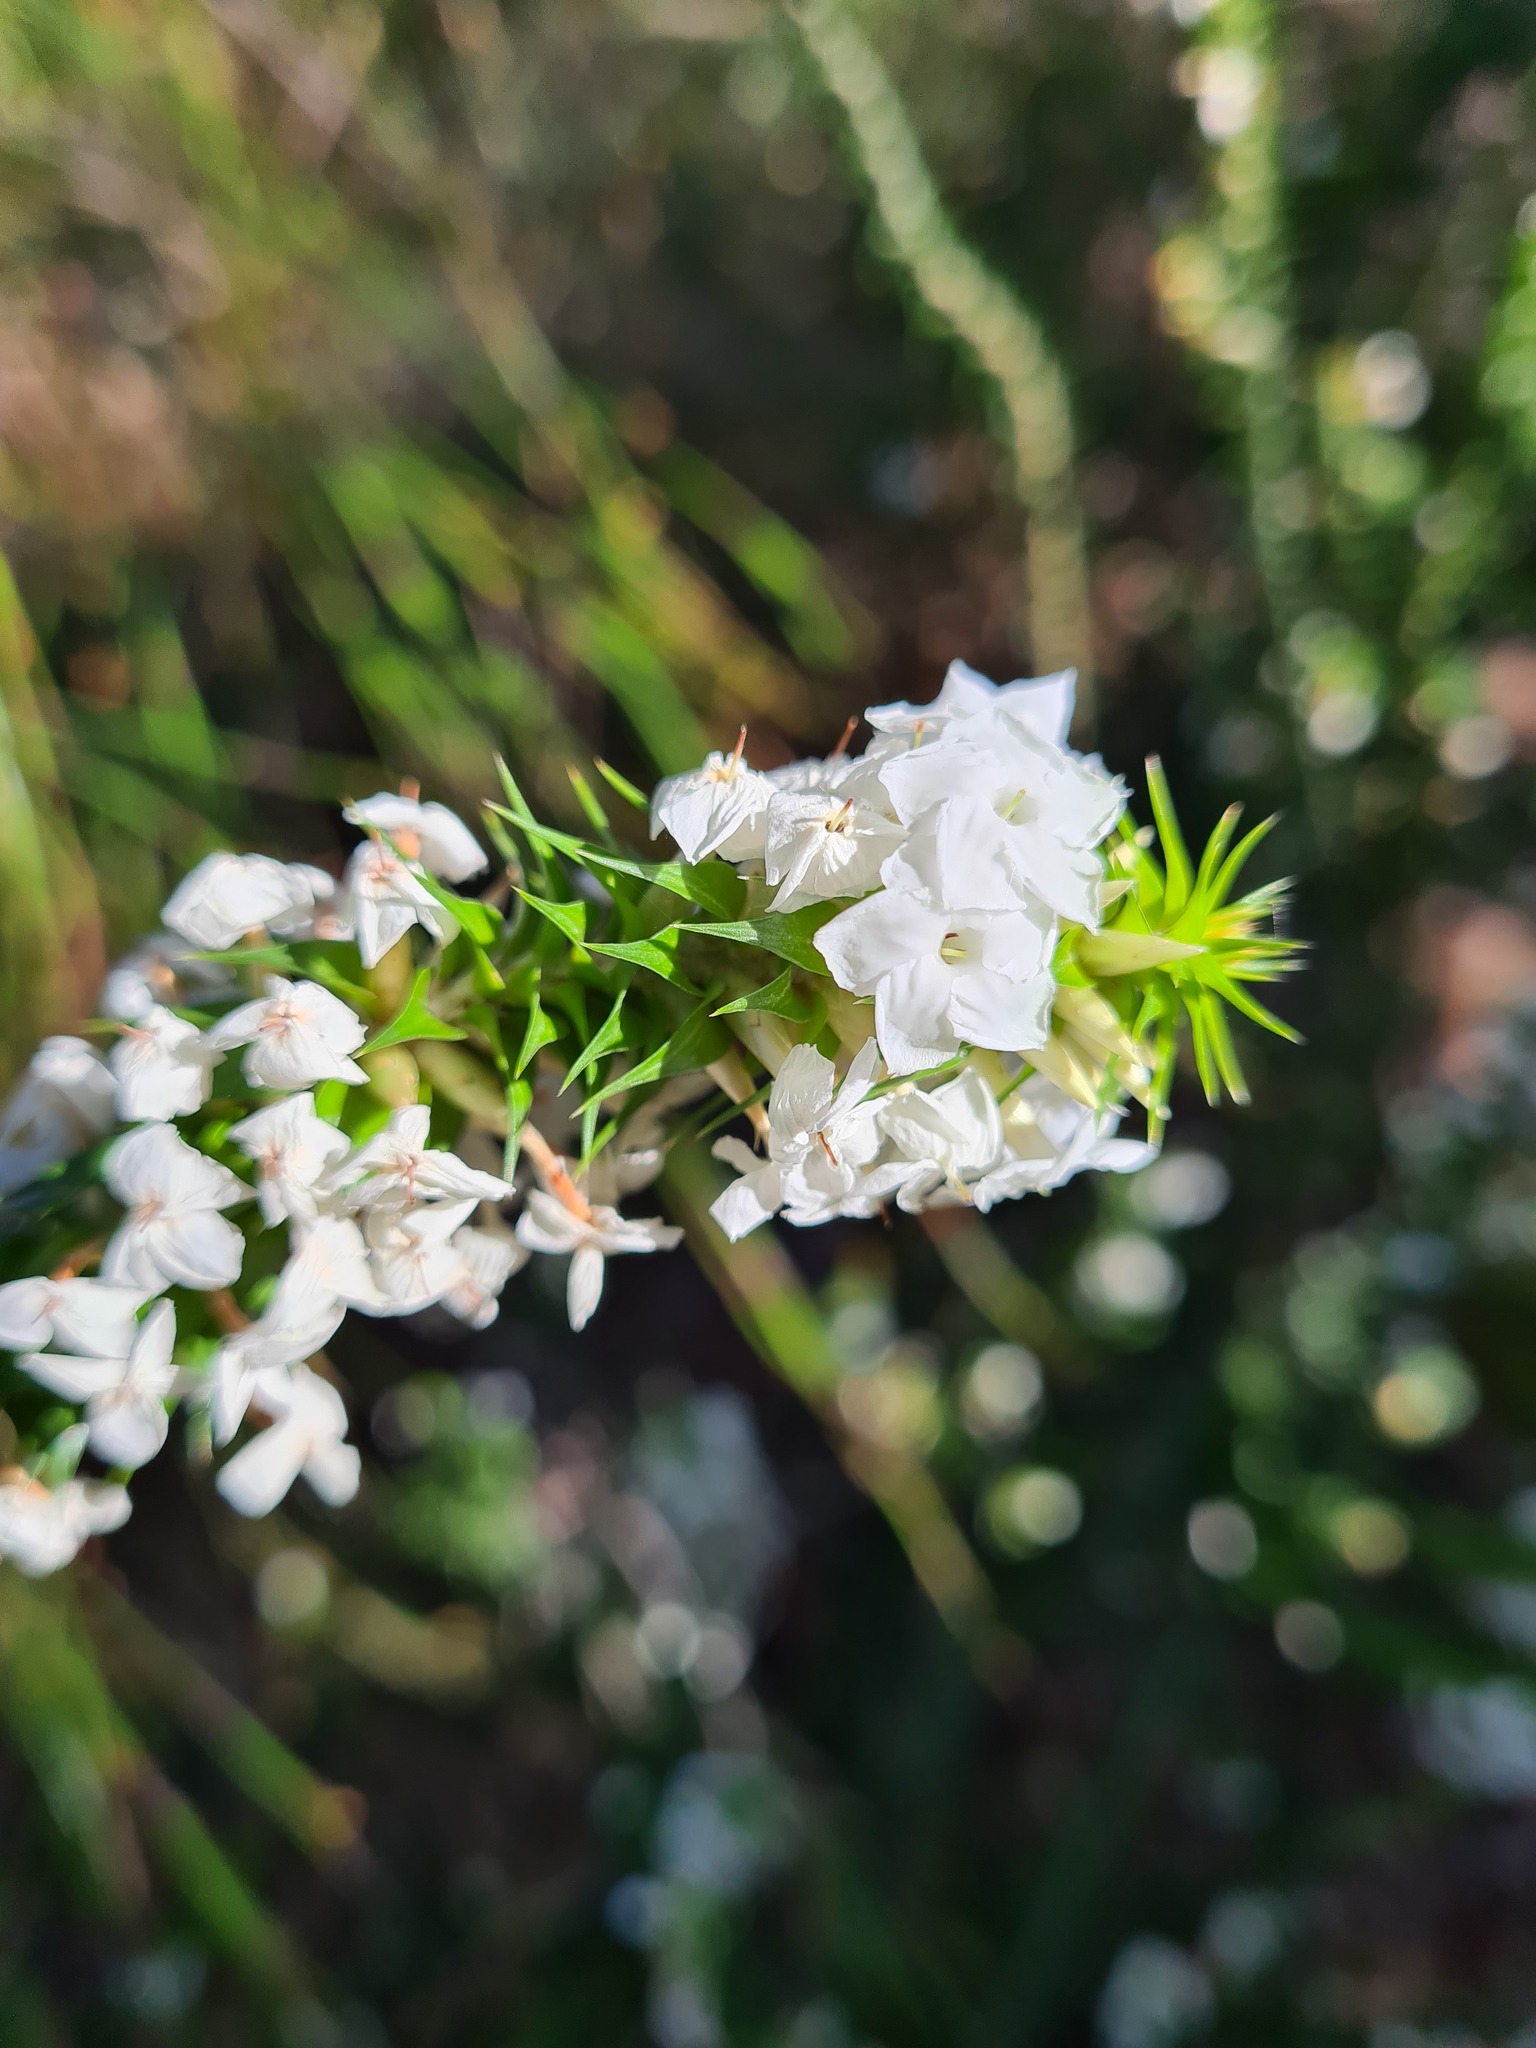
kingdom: Plantae
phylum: Tracheophyta
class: Magnoliopsida
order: Ericales
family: Ericaceae
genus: Woollsia
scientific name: Woollsia pungens
